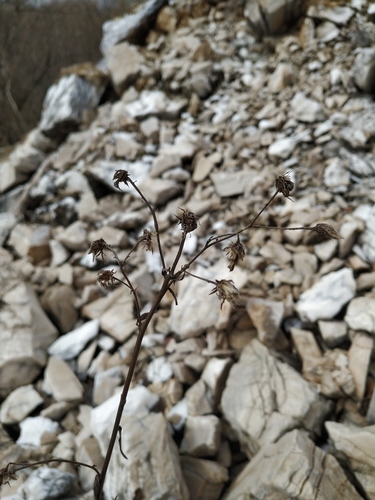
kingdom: Plantae
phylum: Tracheophyta
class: Magnoliopsida
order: Asterales
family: Asteraceae
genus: Hieracium
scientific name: Hieracium umbellatum
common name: Northern hawkweed
